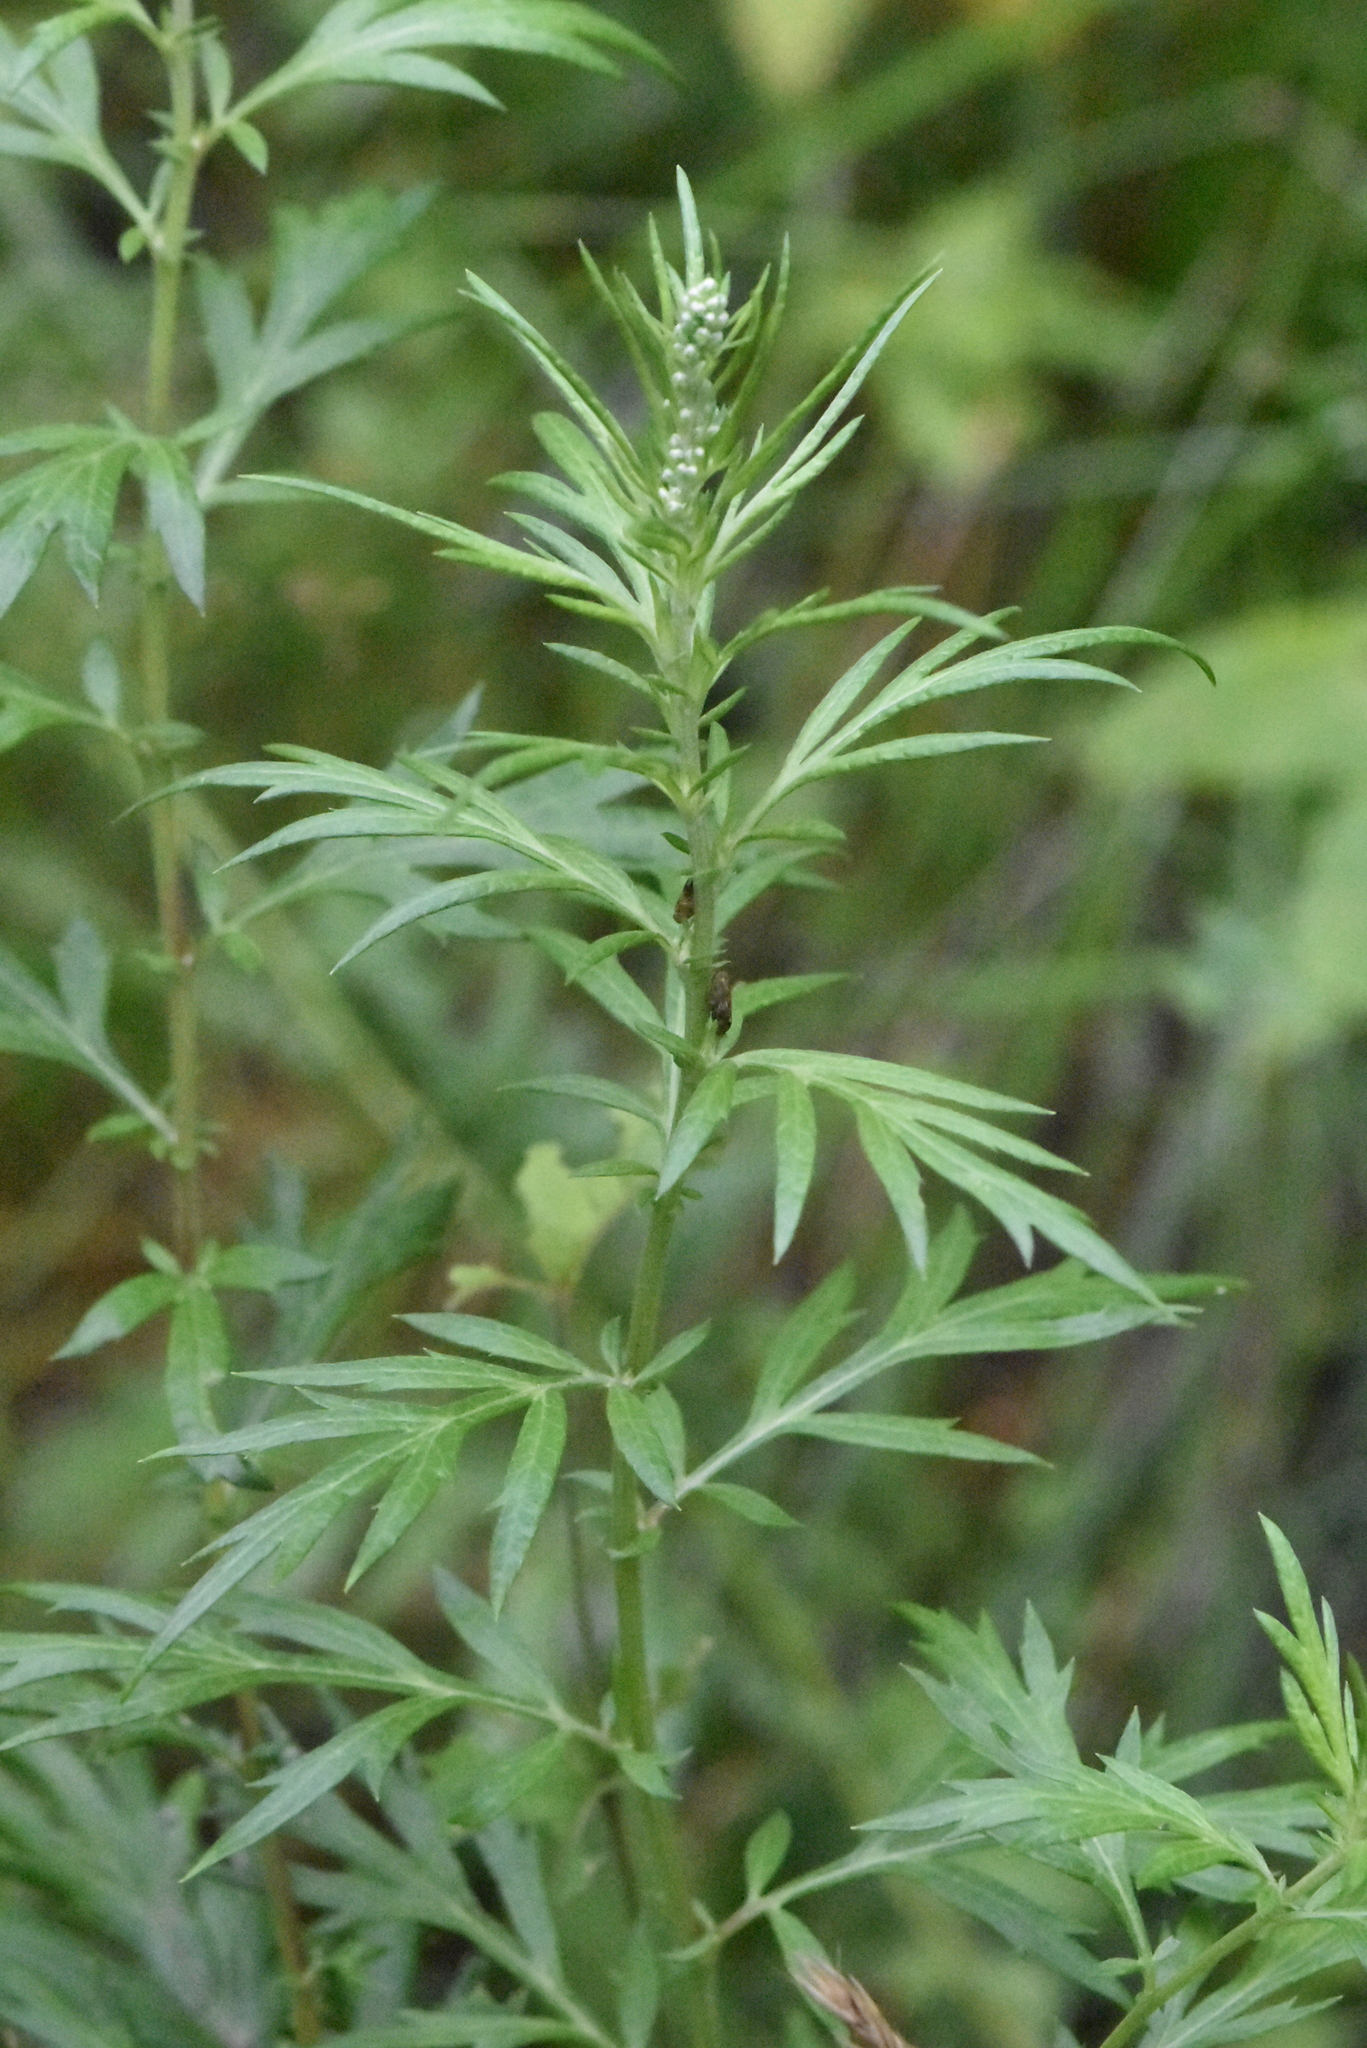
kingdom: Plantae
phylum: Tracheophyta
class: Magnoliopsida
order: Asterales
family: Asteraceae
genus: Artemisia
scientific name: Artemisia vulgaris
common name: Mugwort
